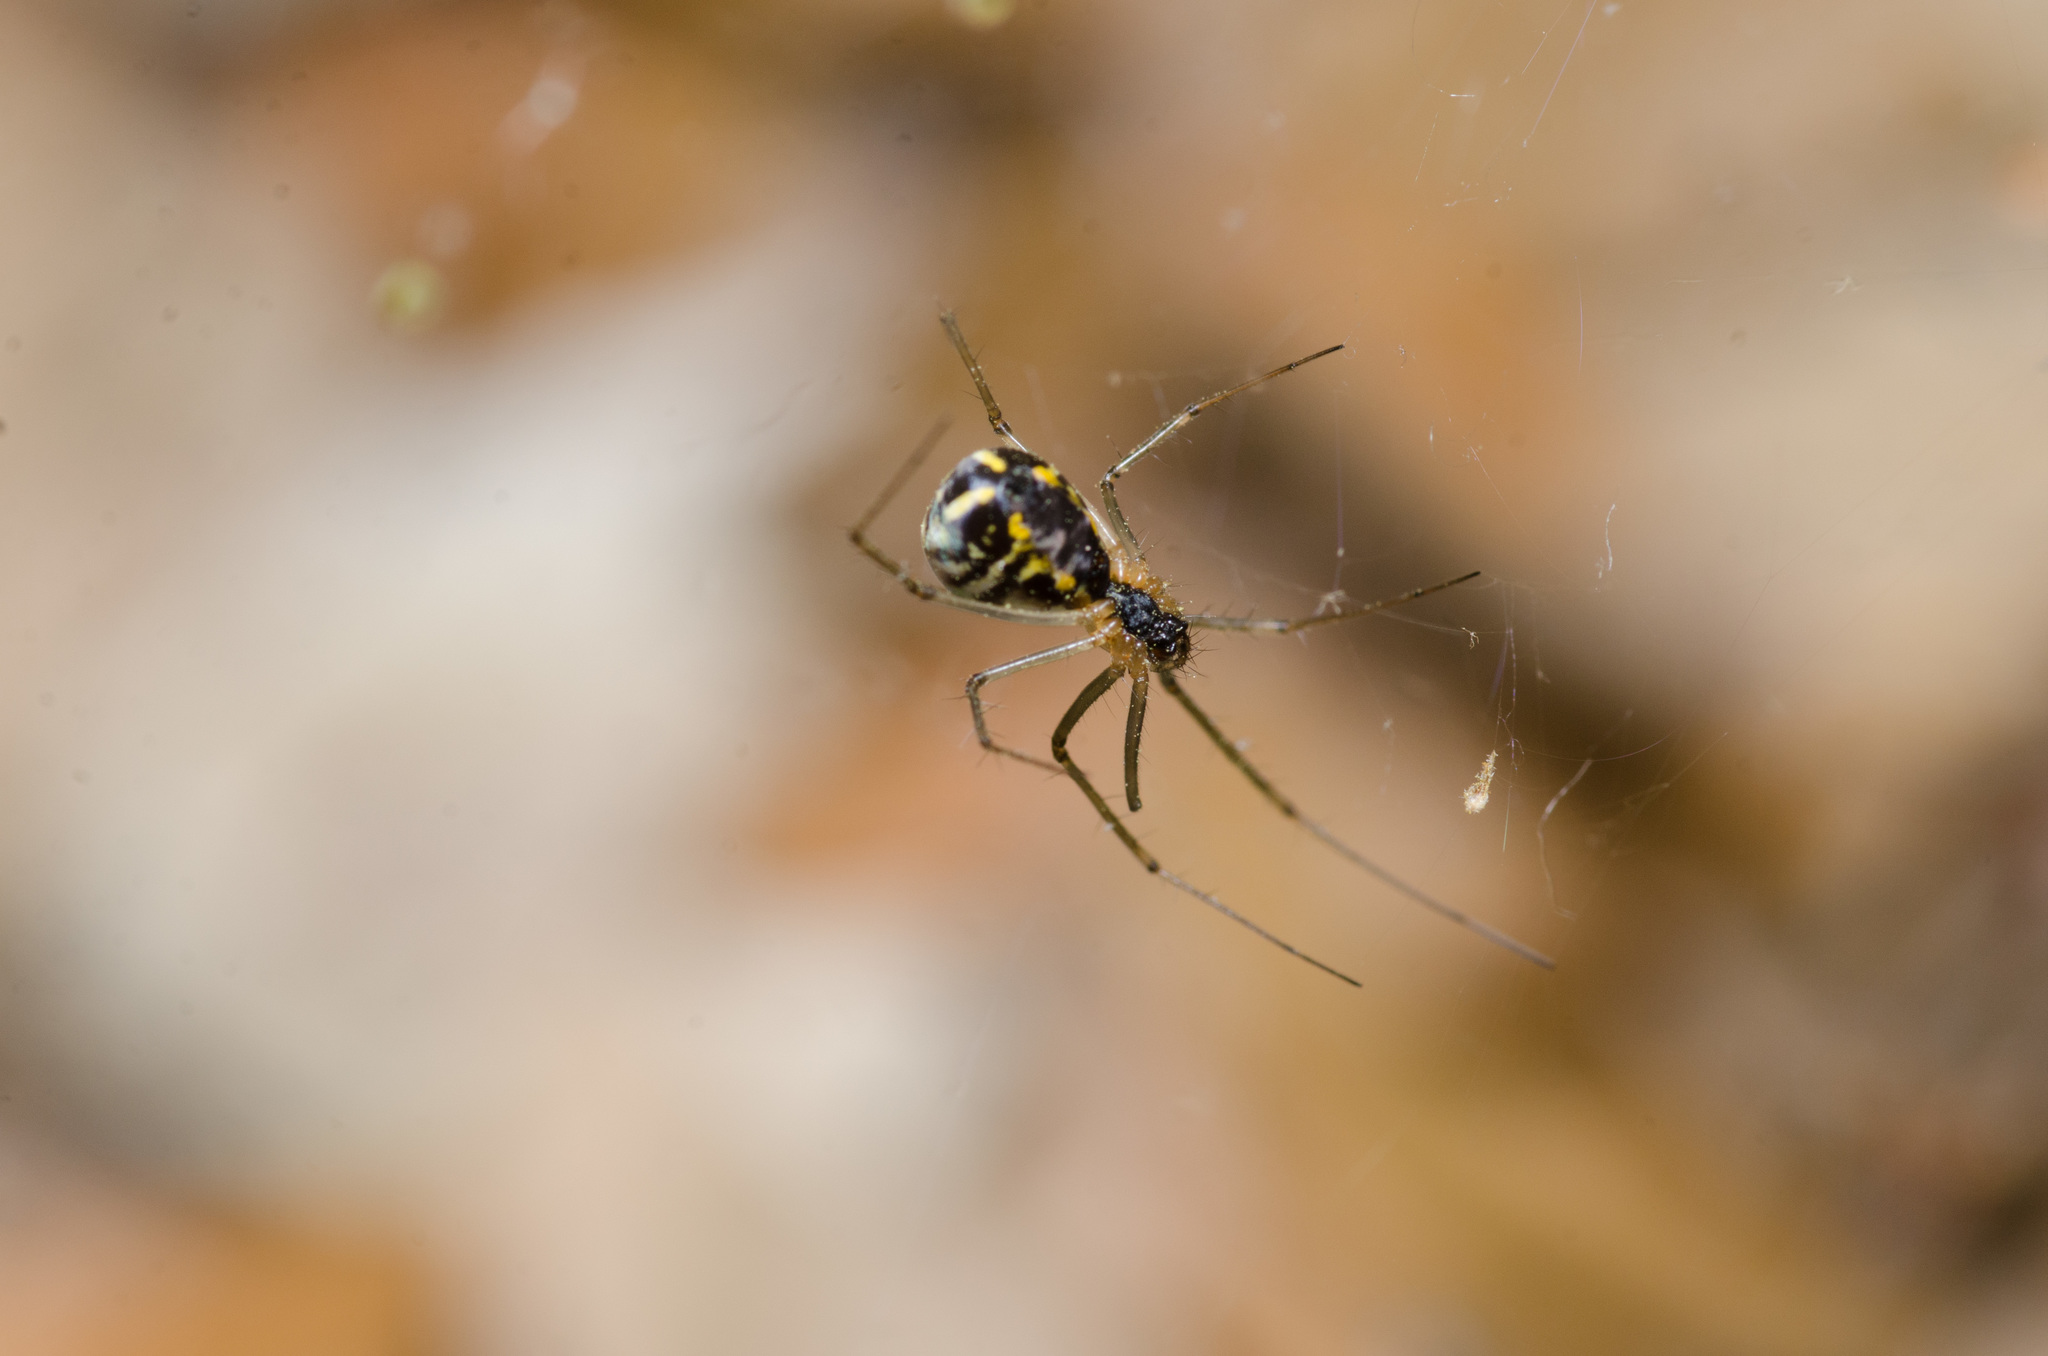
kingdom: Animalia
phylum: Arthropoda
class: Arachnida
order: Araneae
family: Linyphiidae
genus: Neriene
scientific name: Neriene radiata
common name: Filmy dome spider
